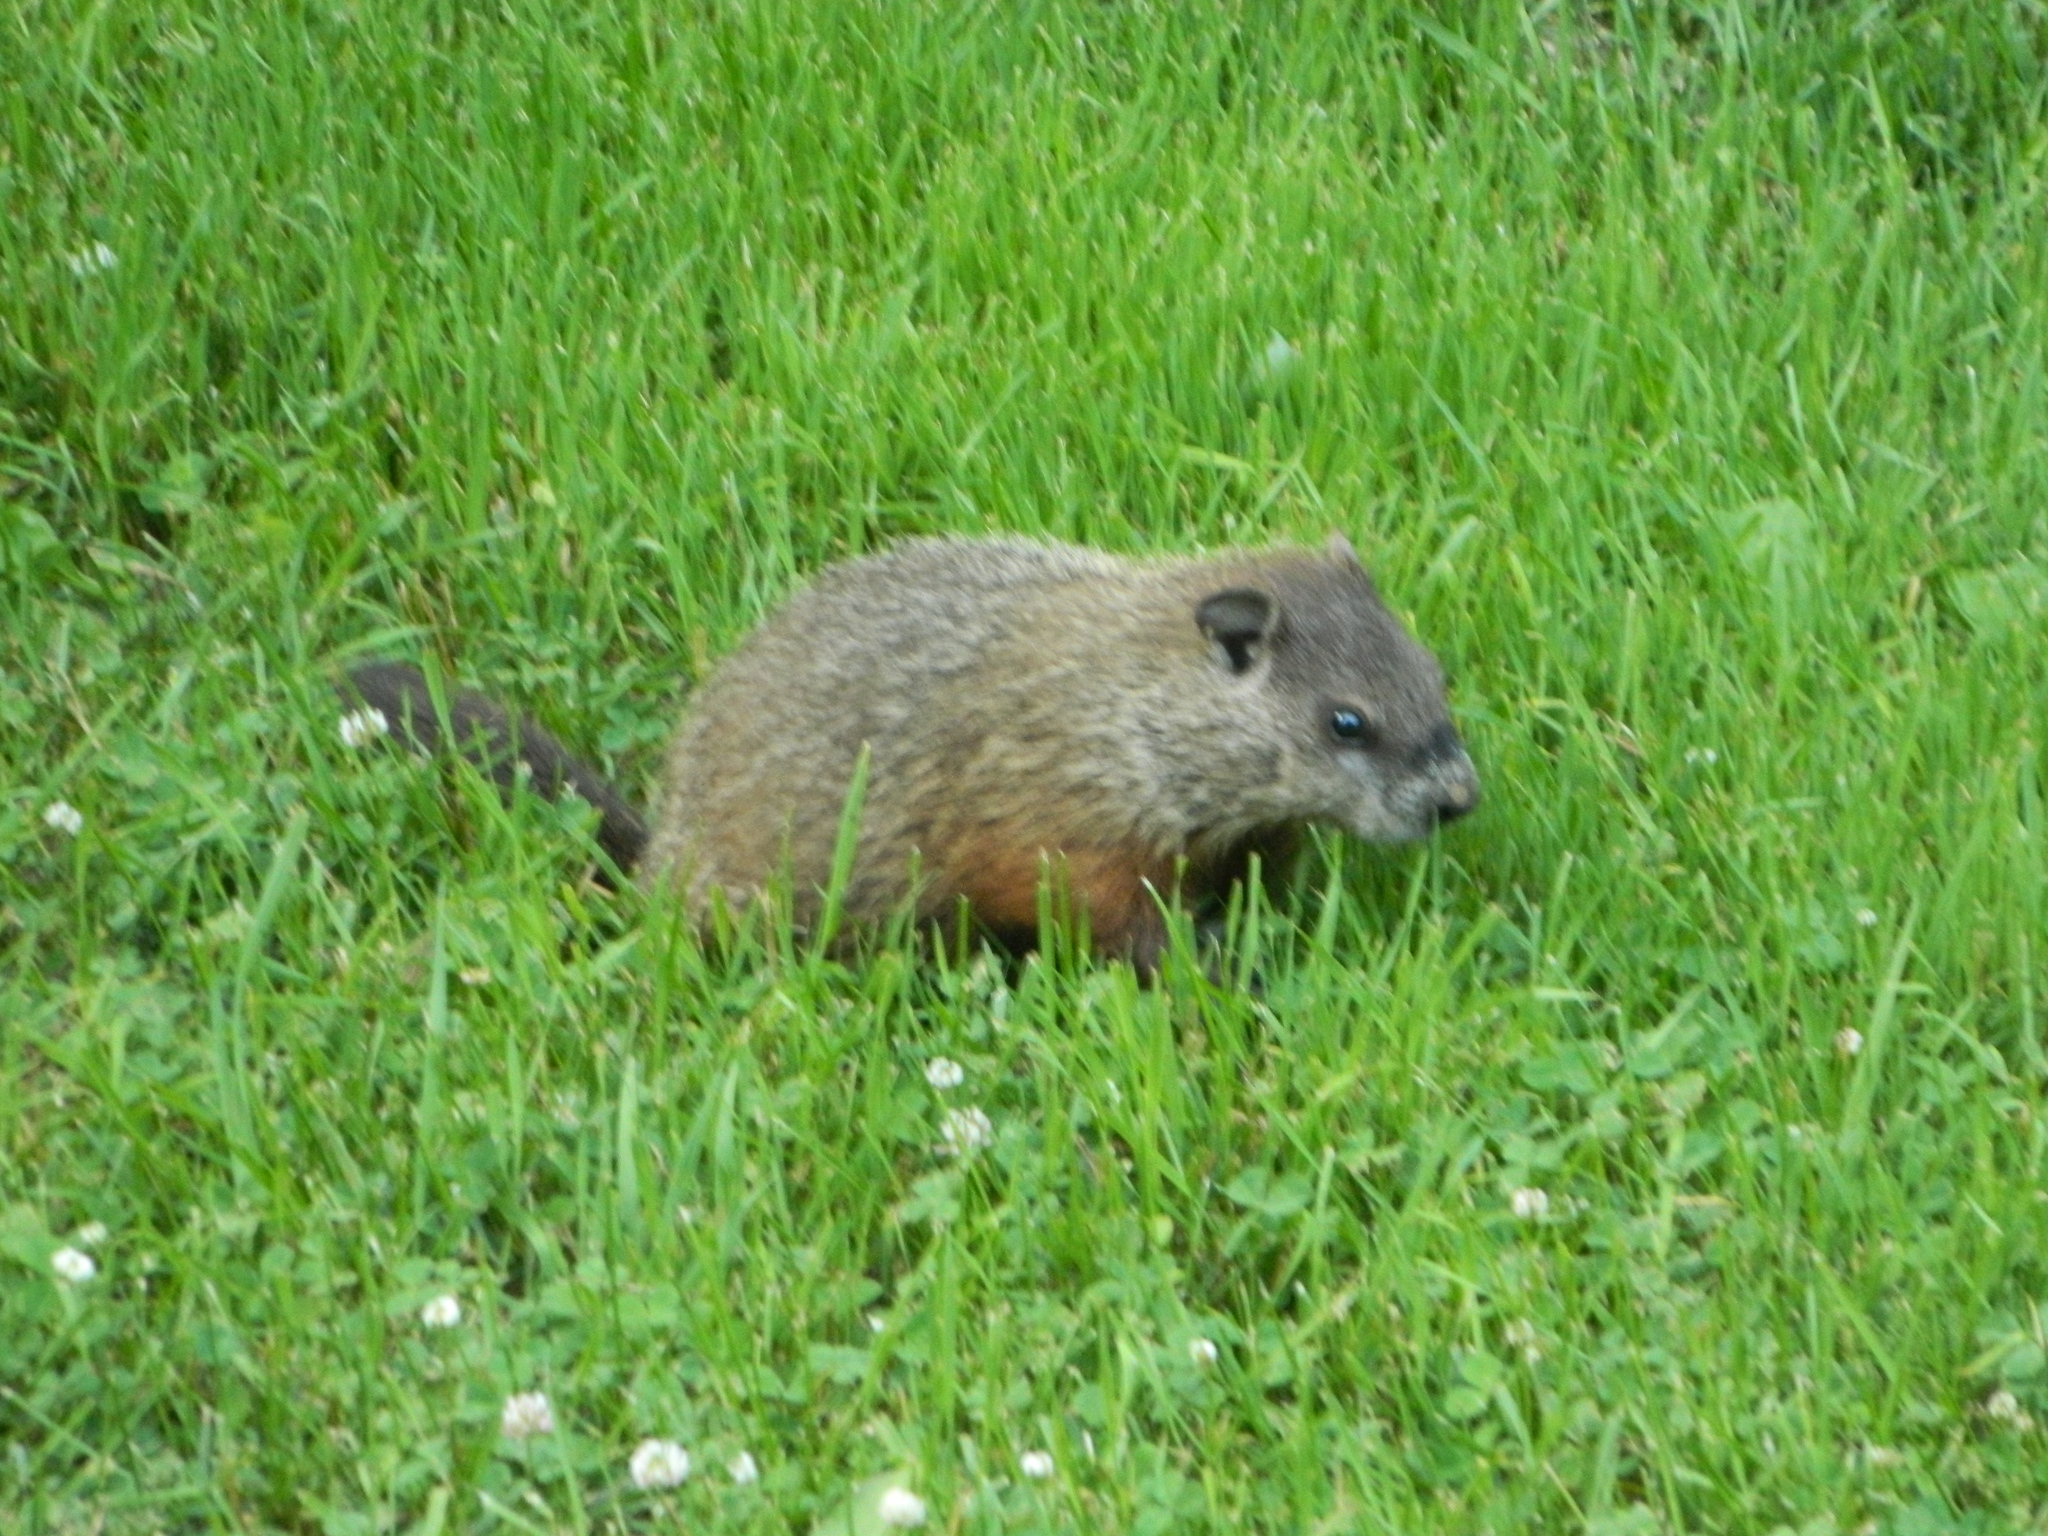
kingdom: Animalia
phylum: Chordata
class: Mammalia
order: Rodentia
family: Sciuridae
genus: Marmota
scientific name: Marmota monax
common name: Groundhog
